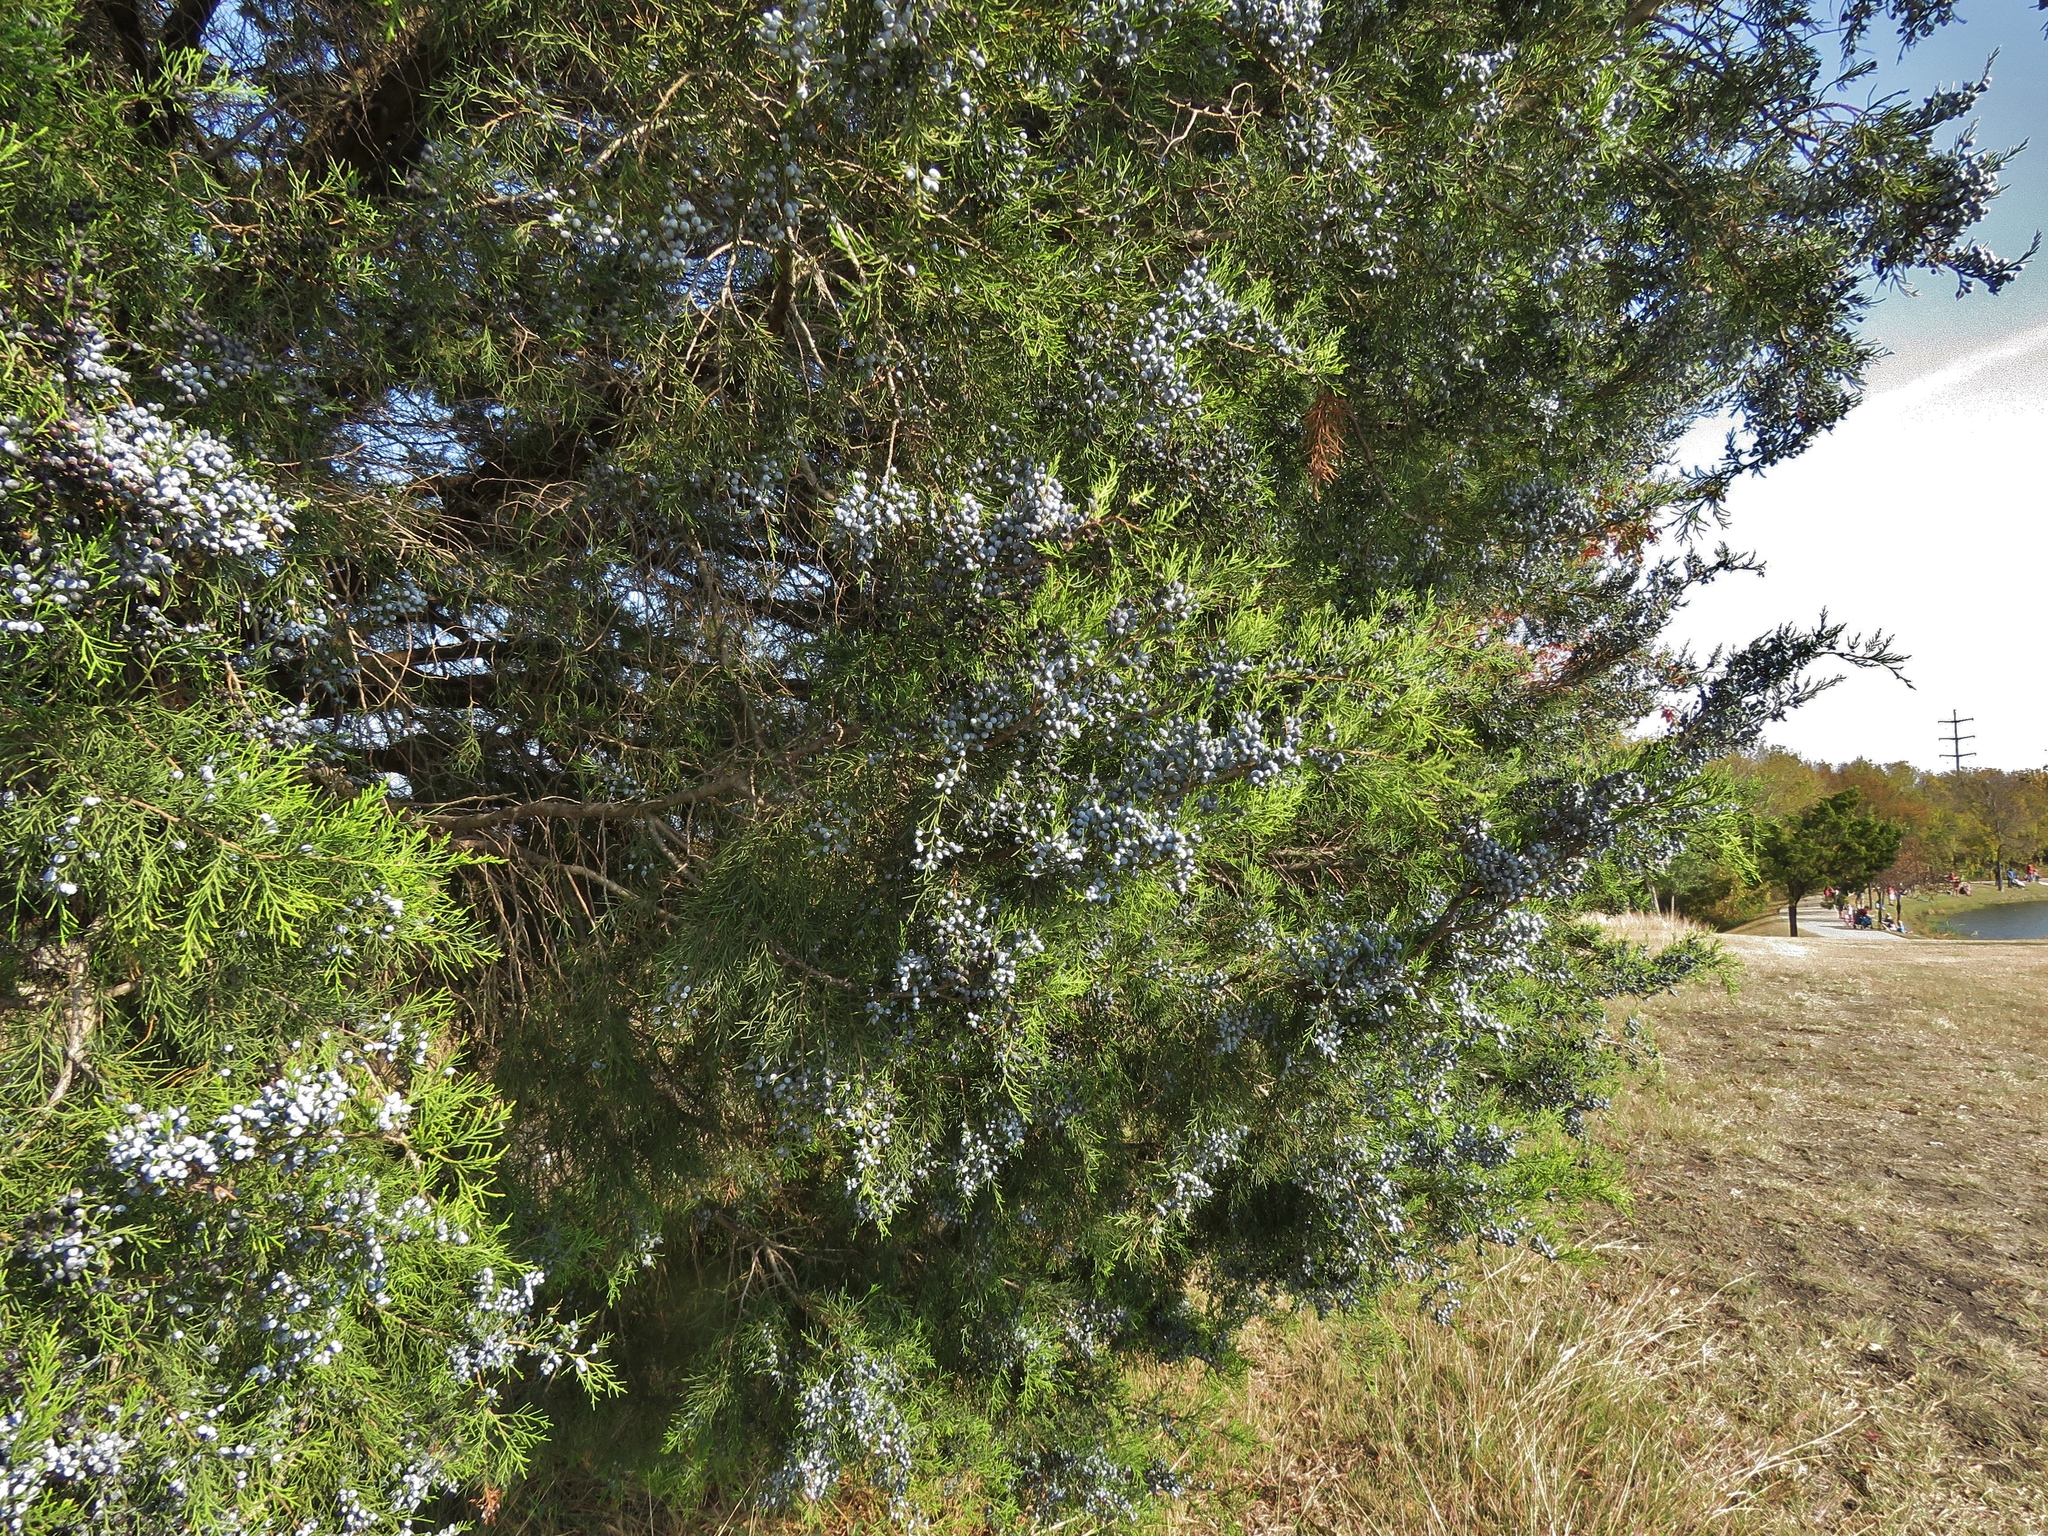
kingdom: Plantae
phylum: Tracheophyta
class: Pinopsida
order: Pinales
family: Cupressaceae
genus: Juniperus
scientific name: Juniperus virginiana
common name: Red juniper
